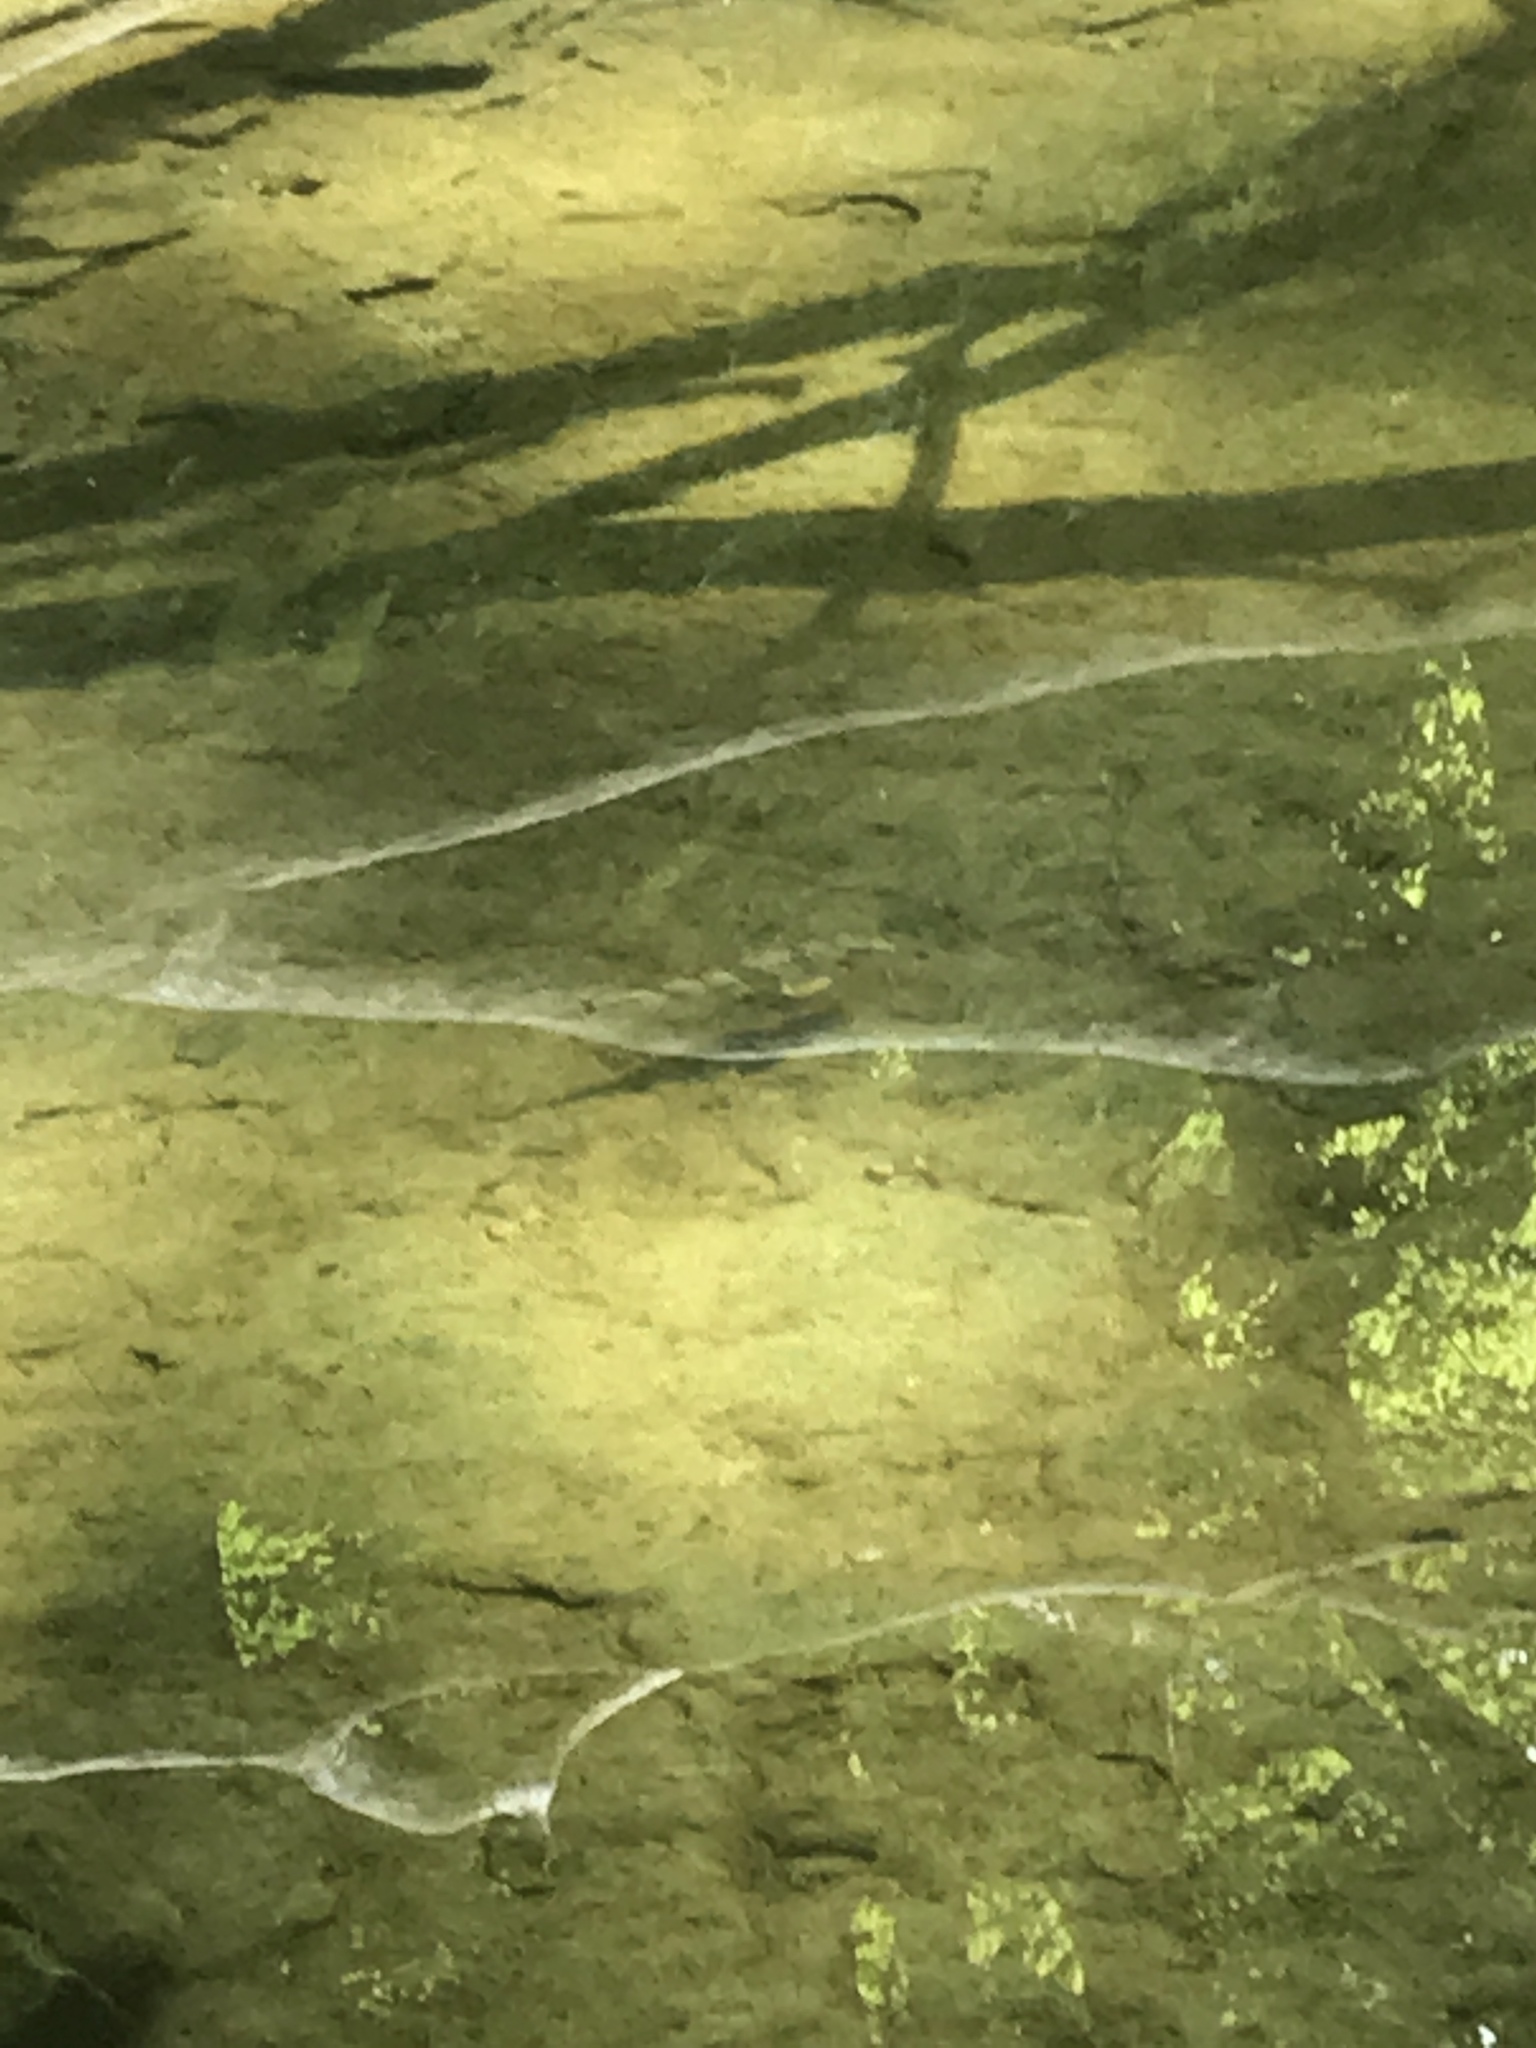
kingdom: Animalia
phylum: Chordata
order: Cypriniformes
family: Catostomidae
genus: Hypentelium
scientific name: Hypentelium nigricans
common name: Northern hog sucker
